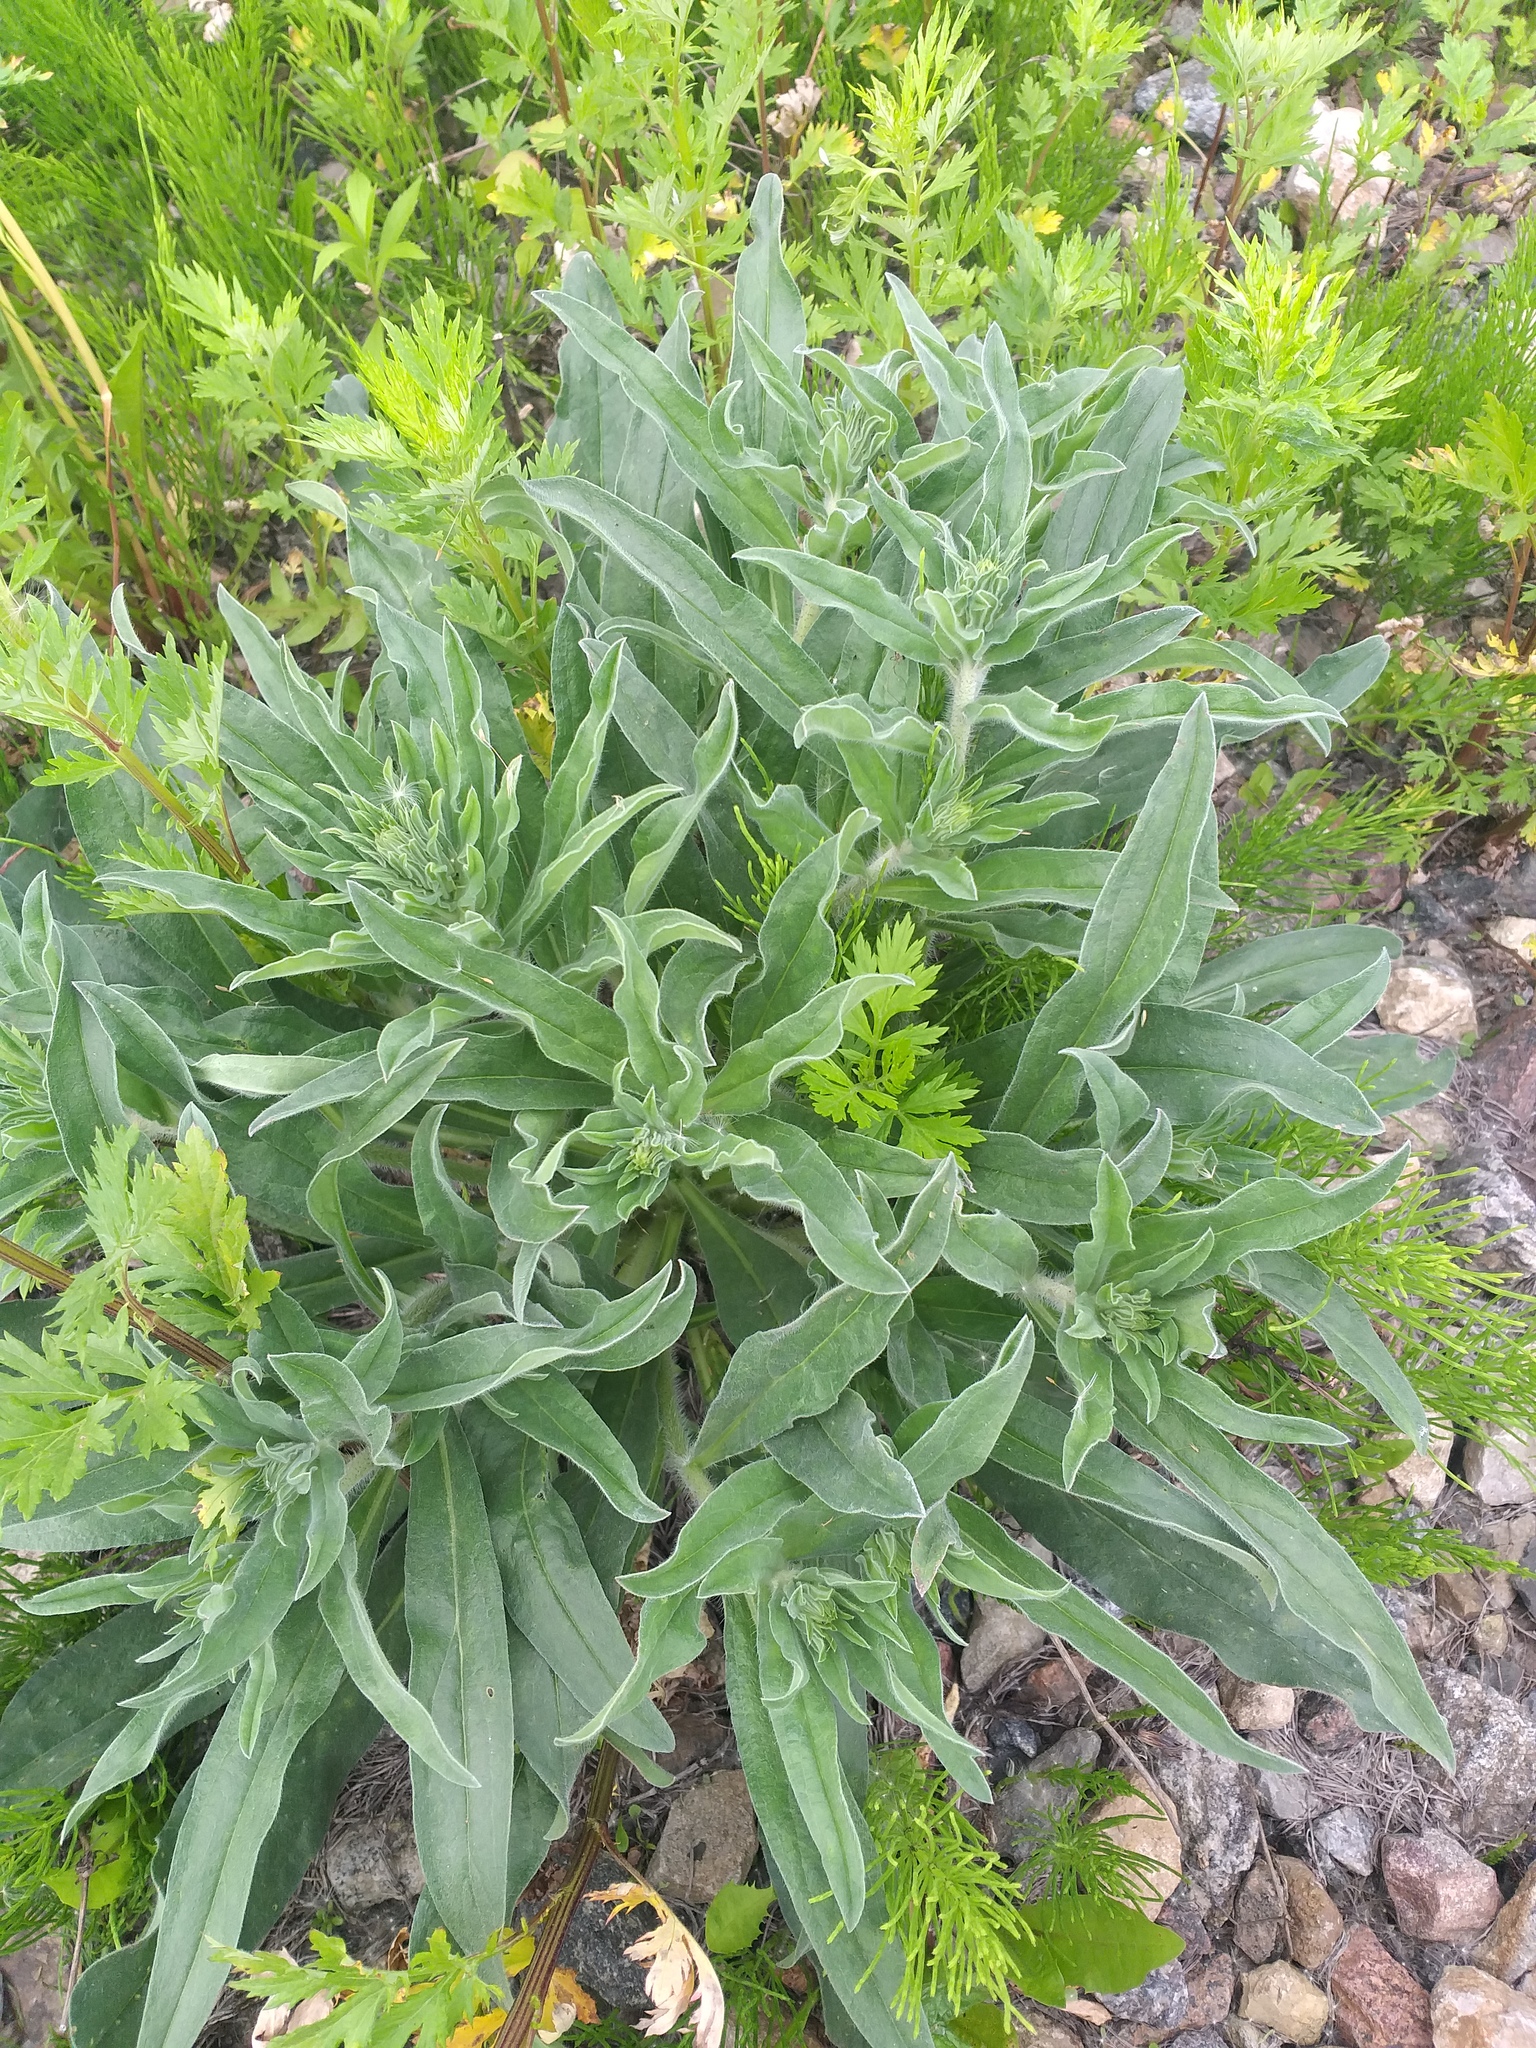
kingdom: Plantae
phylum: Tracheophyta
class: Magnoliopsida
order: Boraginales
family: Boraginaceae
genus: Echium
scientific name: Echium vulgare
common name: Common viper's bugloss
